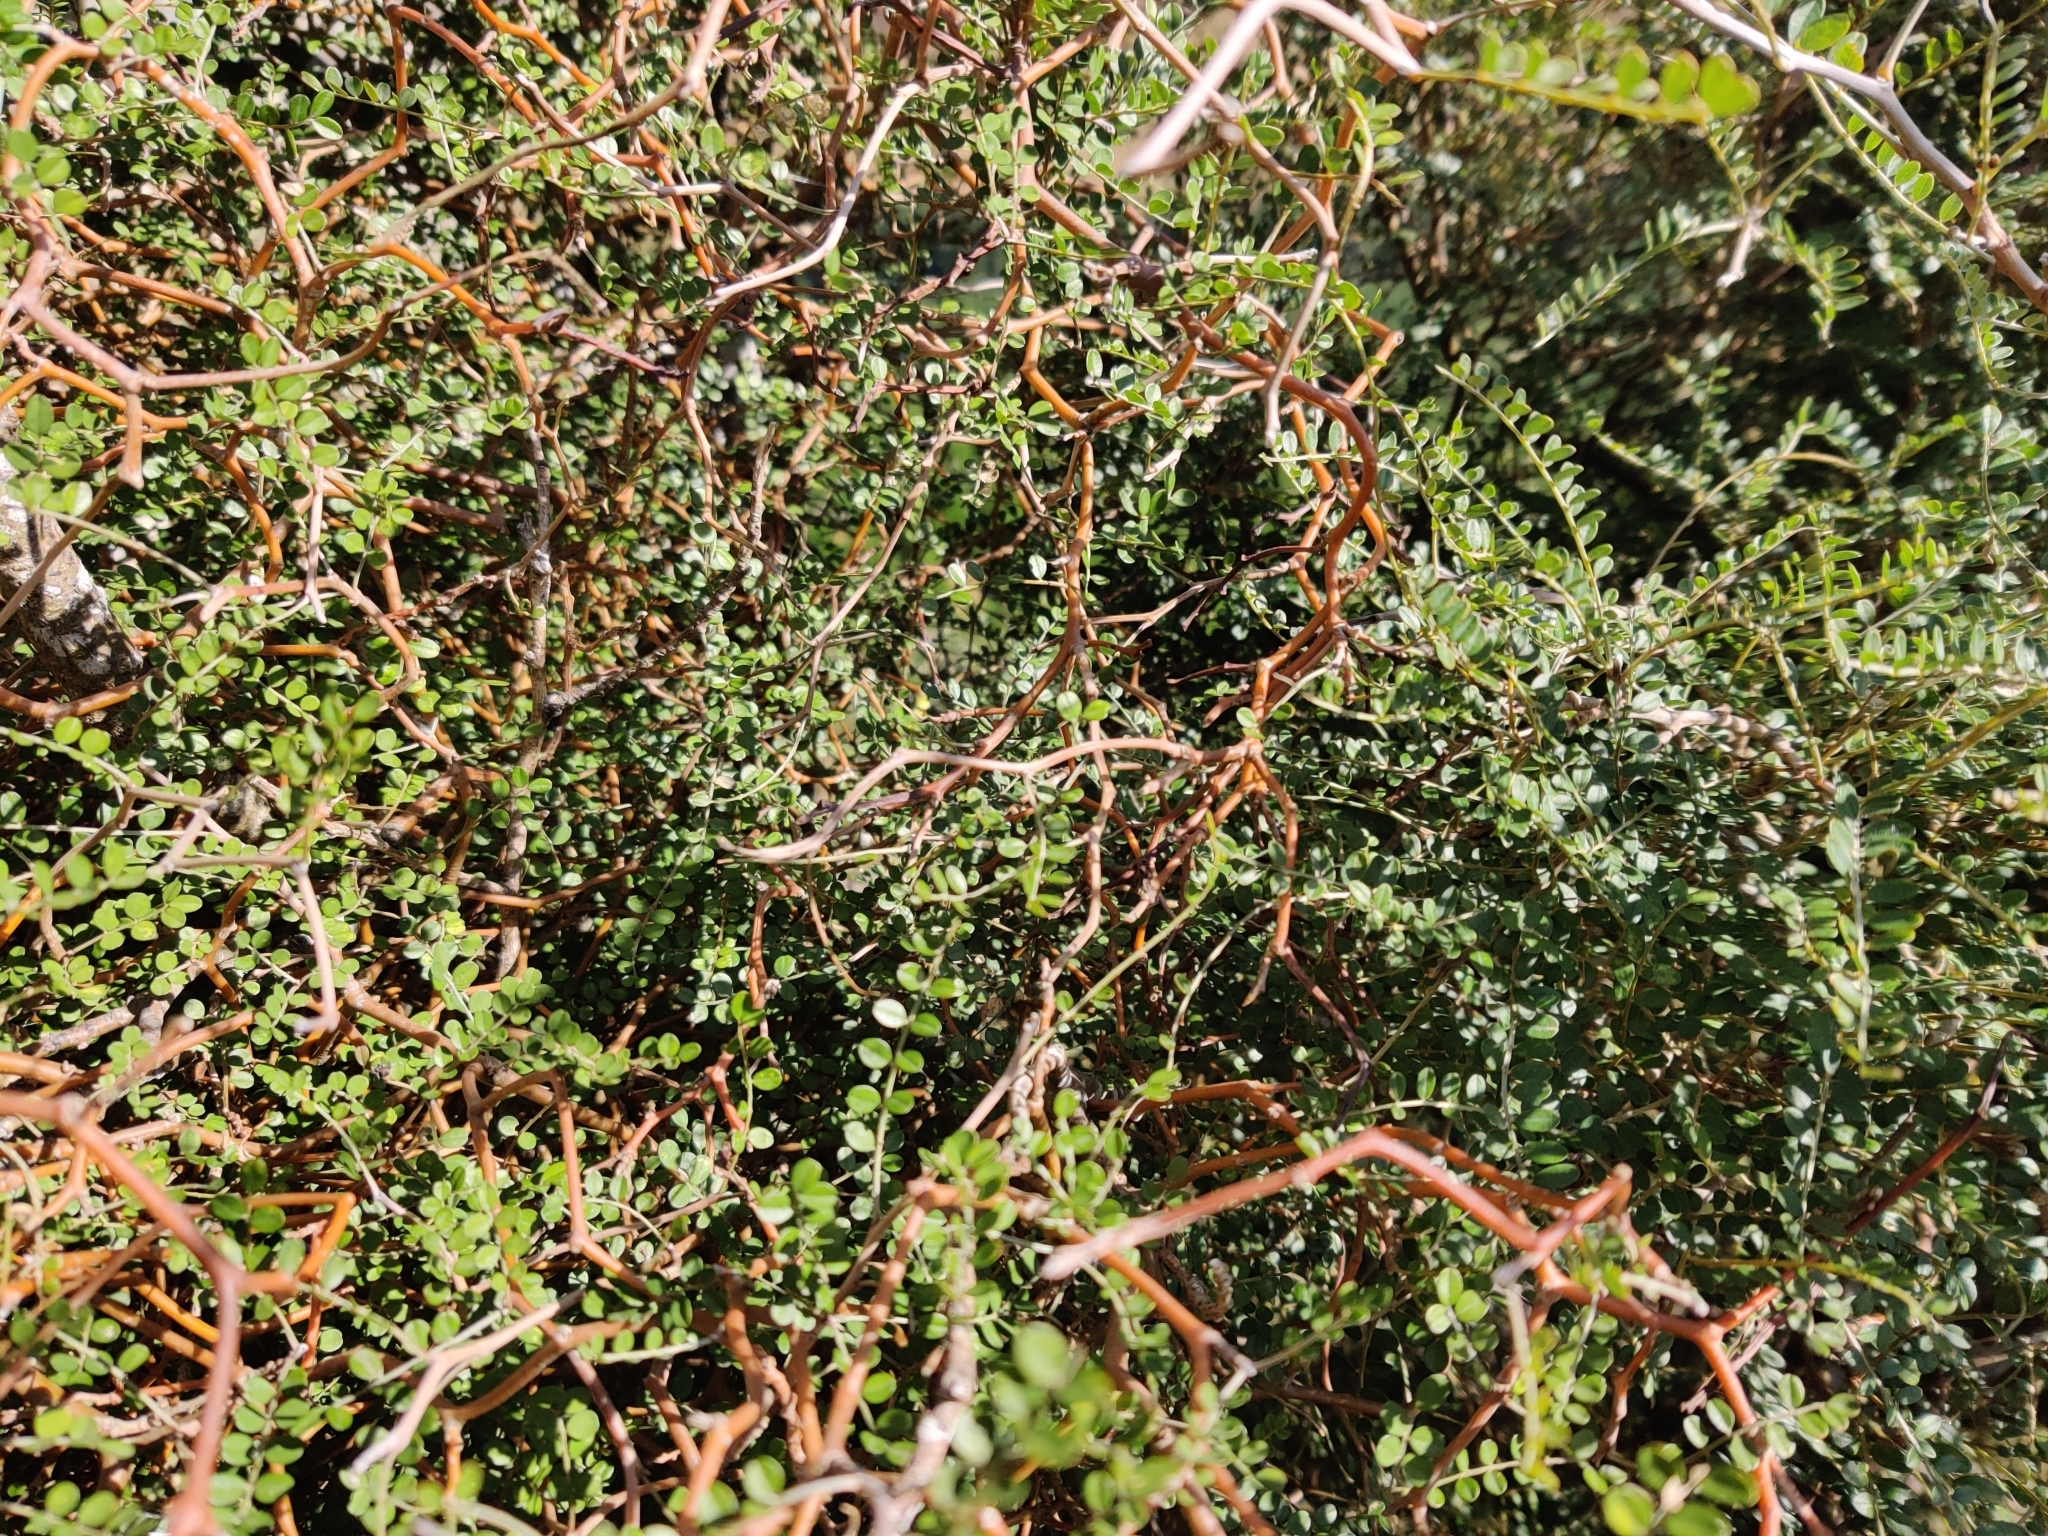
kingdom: Plantae
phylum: Tracheophyta
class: Magnoliopsida
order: Fabales
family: Fabaceae
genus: Sophora
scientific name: Sophora microphylla
